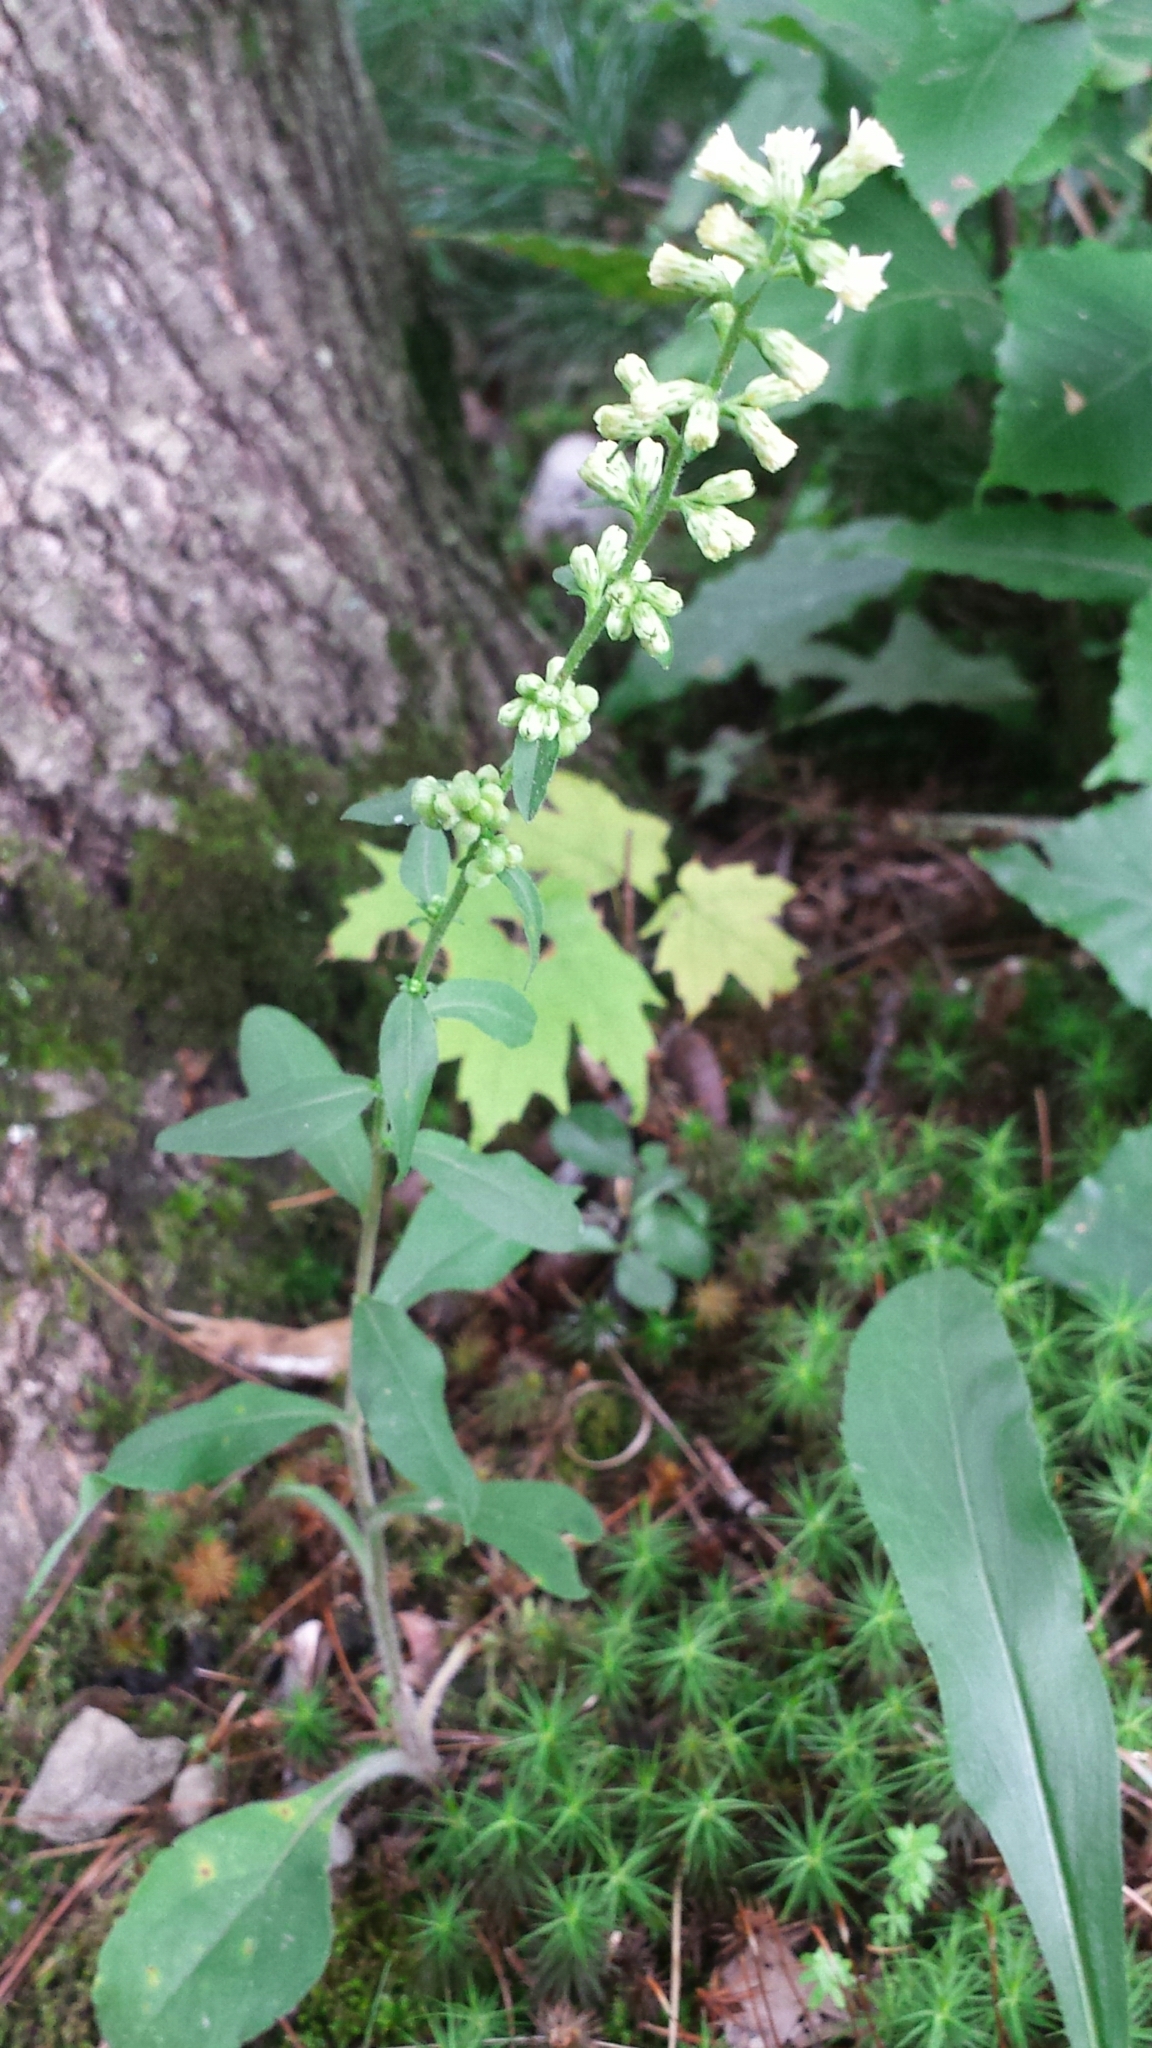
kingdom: Plantae
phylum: Tracheophyta
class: Magnoliopsida
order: Asterales
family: Asteraceae
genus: Solidago
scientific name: Solidago bicolor
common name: Silverrod
